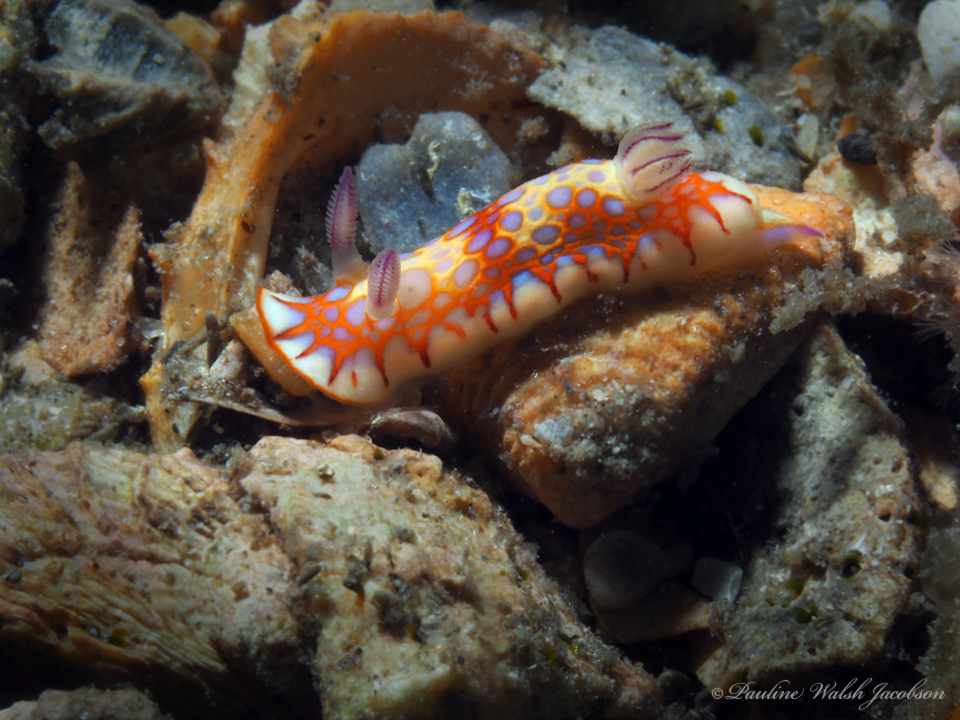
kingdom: Animalia
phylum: Mollusca
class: Gastropoda
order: Nudibranchia
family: Chromodorididae
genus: Felimida
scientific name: Felimida binza
